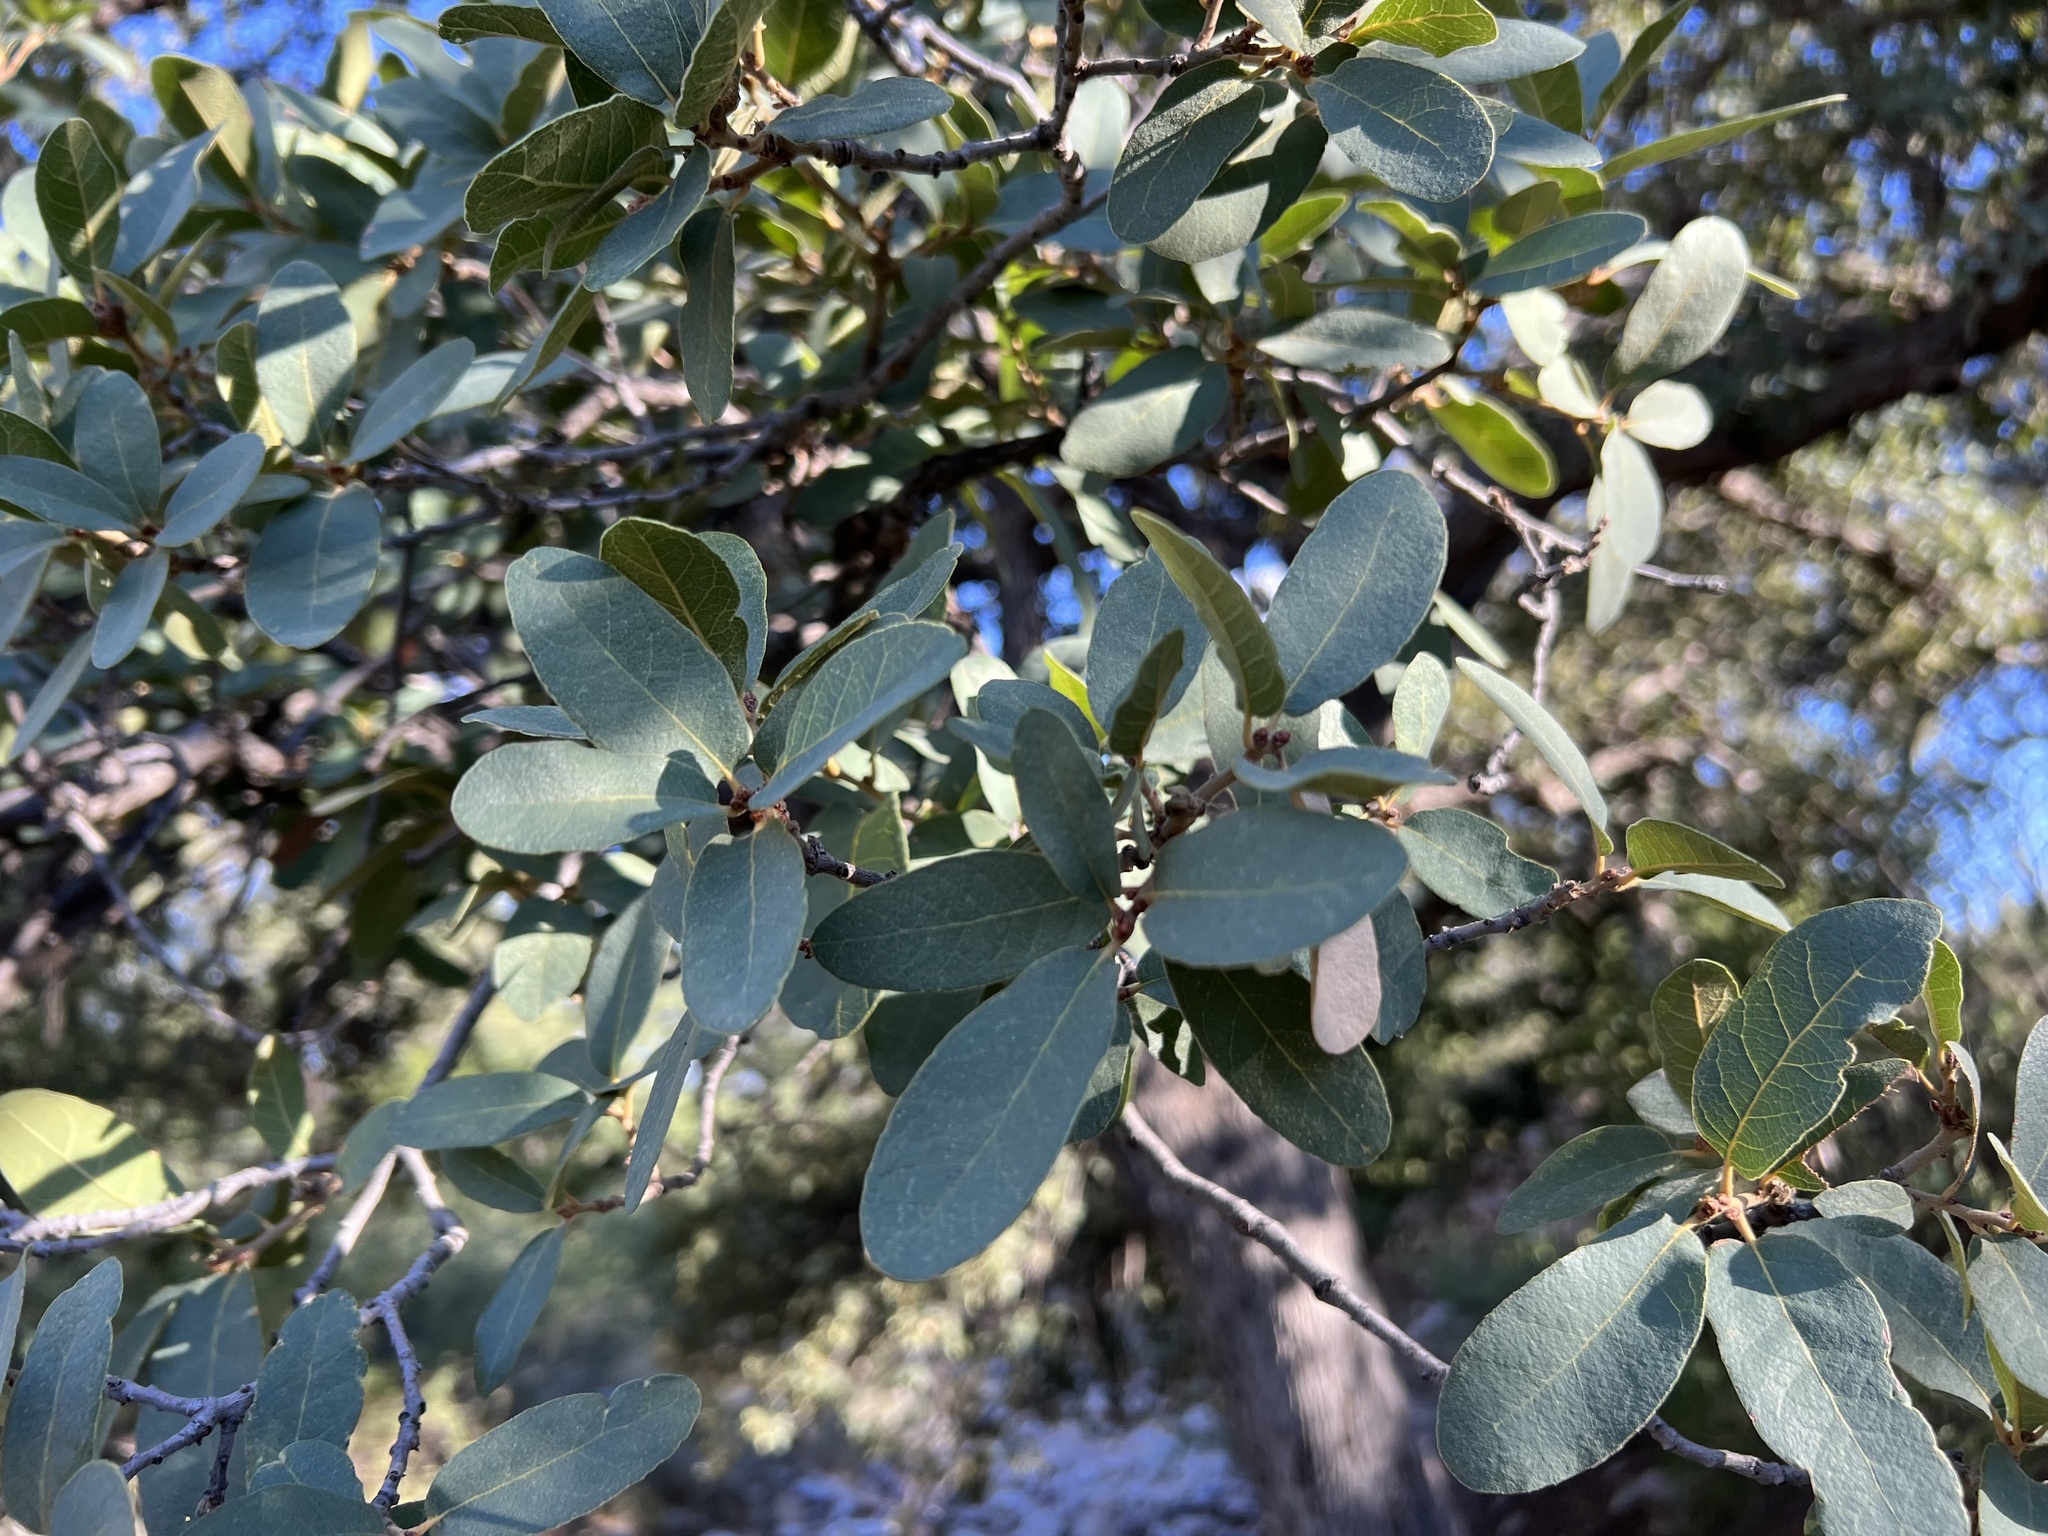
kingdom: Plantae
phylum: Tracheophyta
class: Magnoliopsida
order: Fagales
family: Fagaceae
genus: Quercus
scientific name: Quercus oblongifolia
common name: Mexican blue oak
